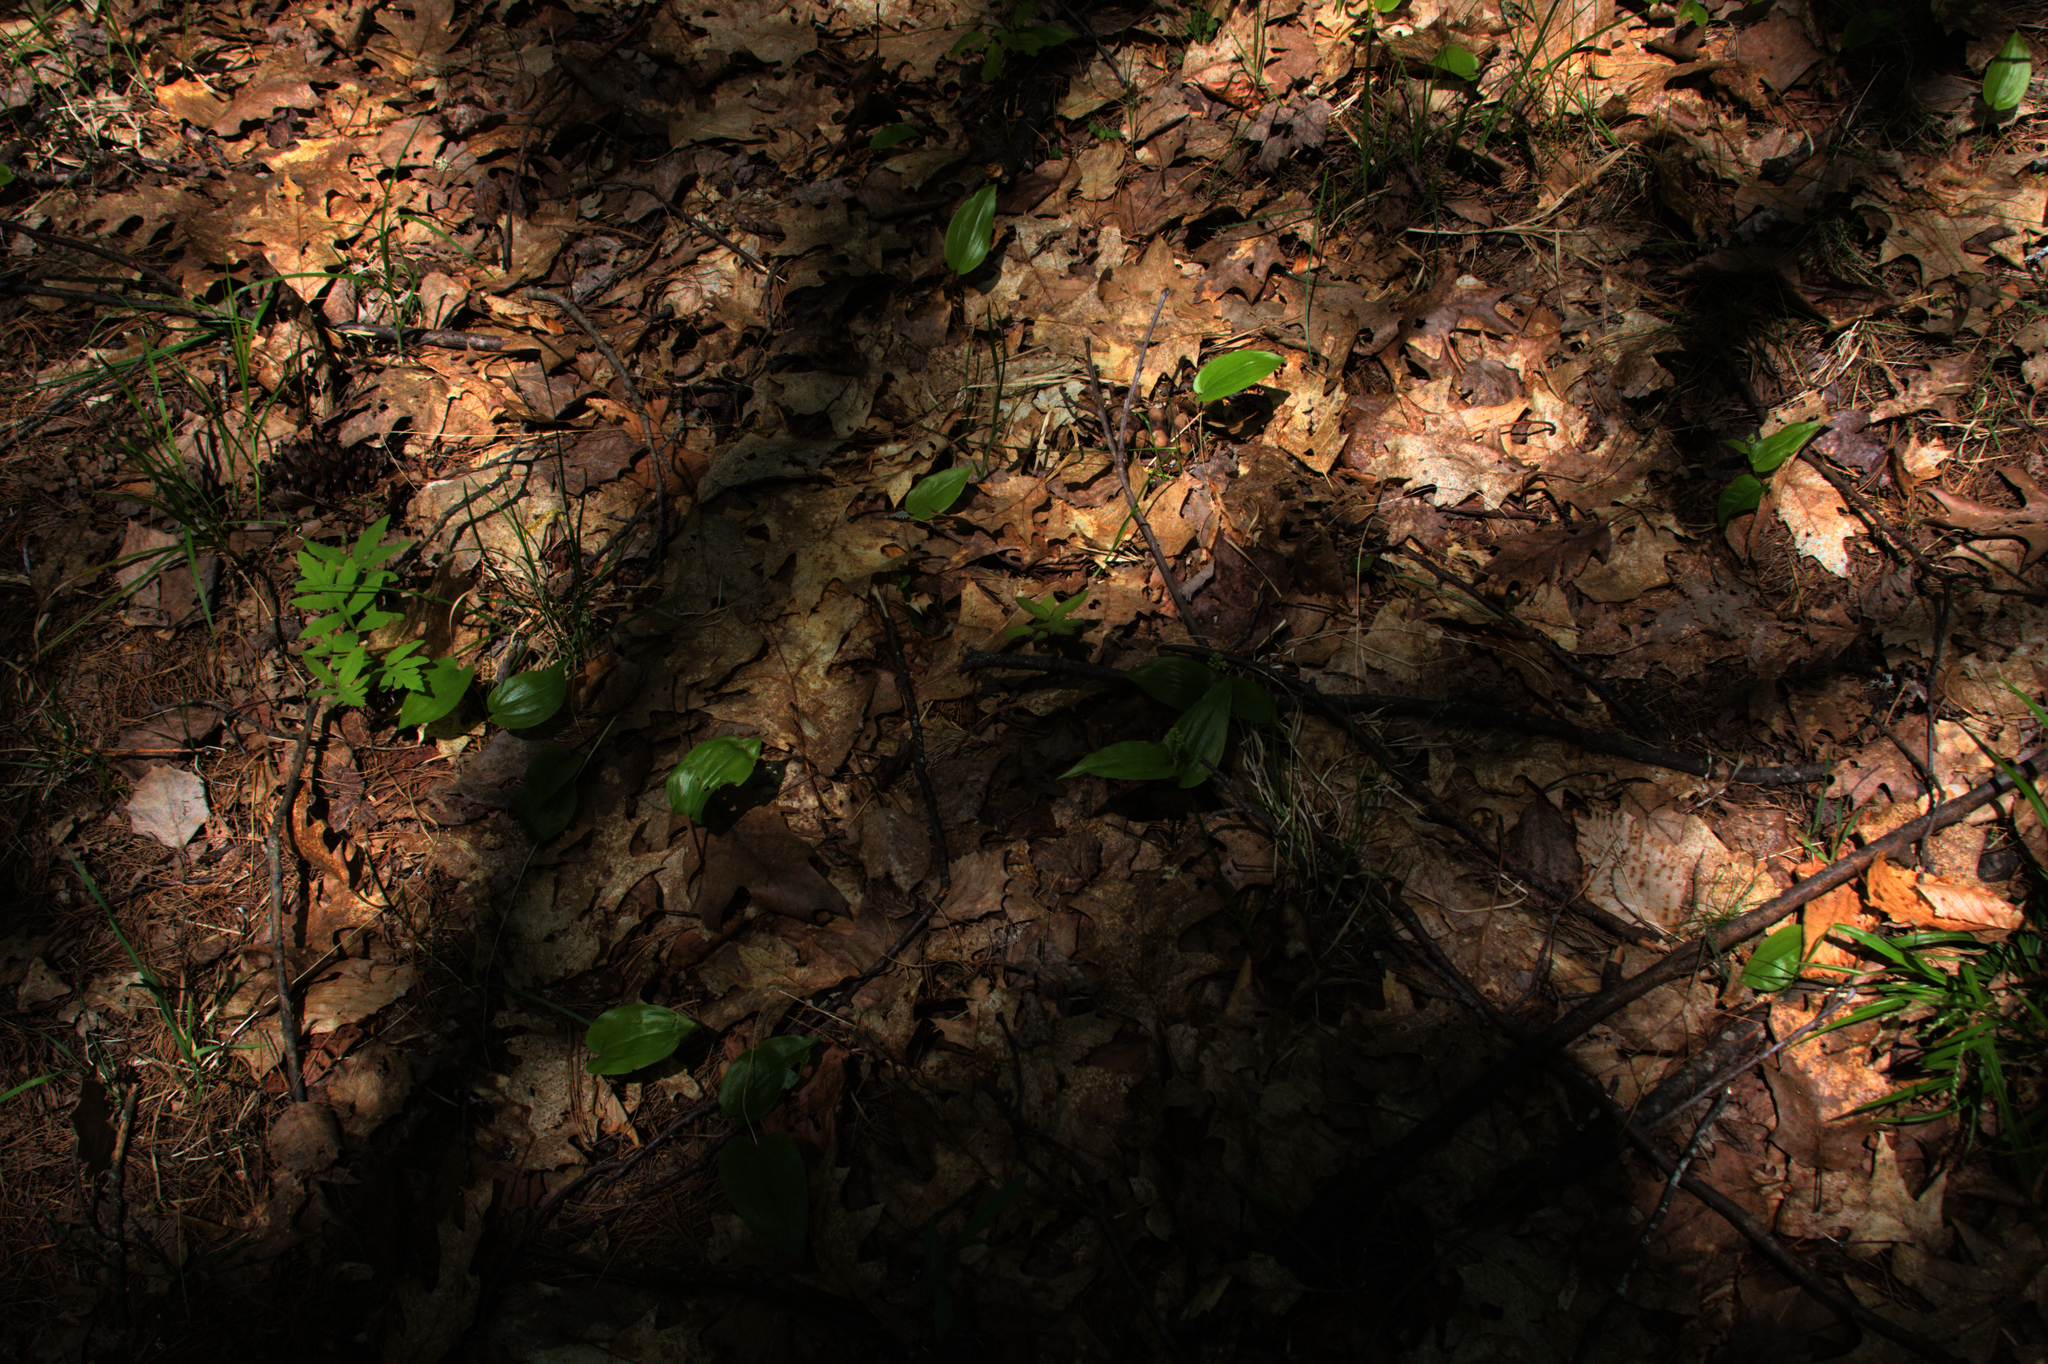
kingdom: Plantae
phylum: Tracheophyta
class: Polypodiopsida
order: Polypodiales
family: Onocleaceae
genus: Onoclea
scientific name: Onoclea sensibilis
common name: Sensitive fern
